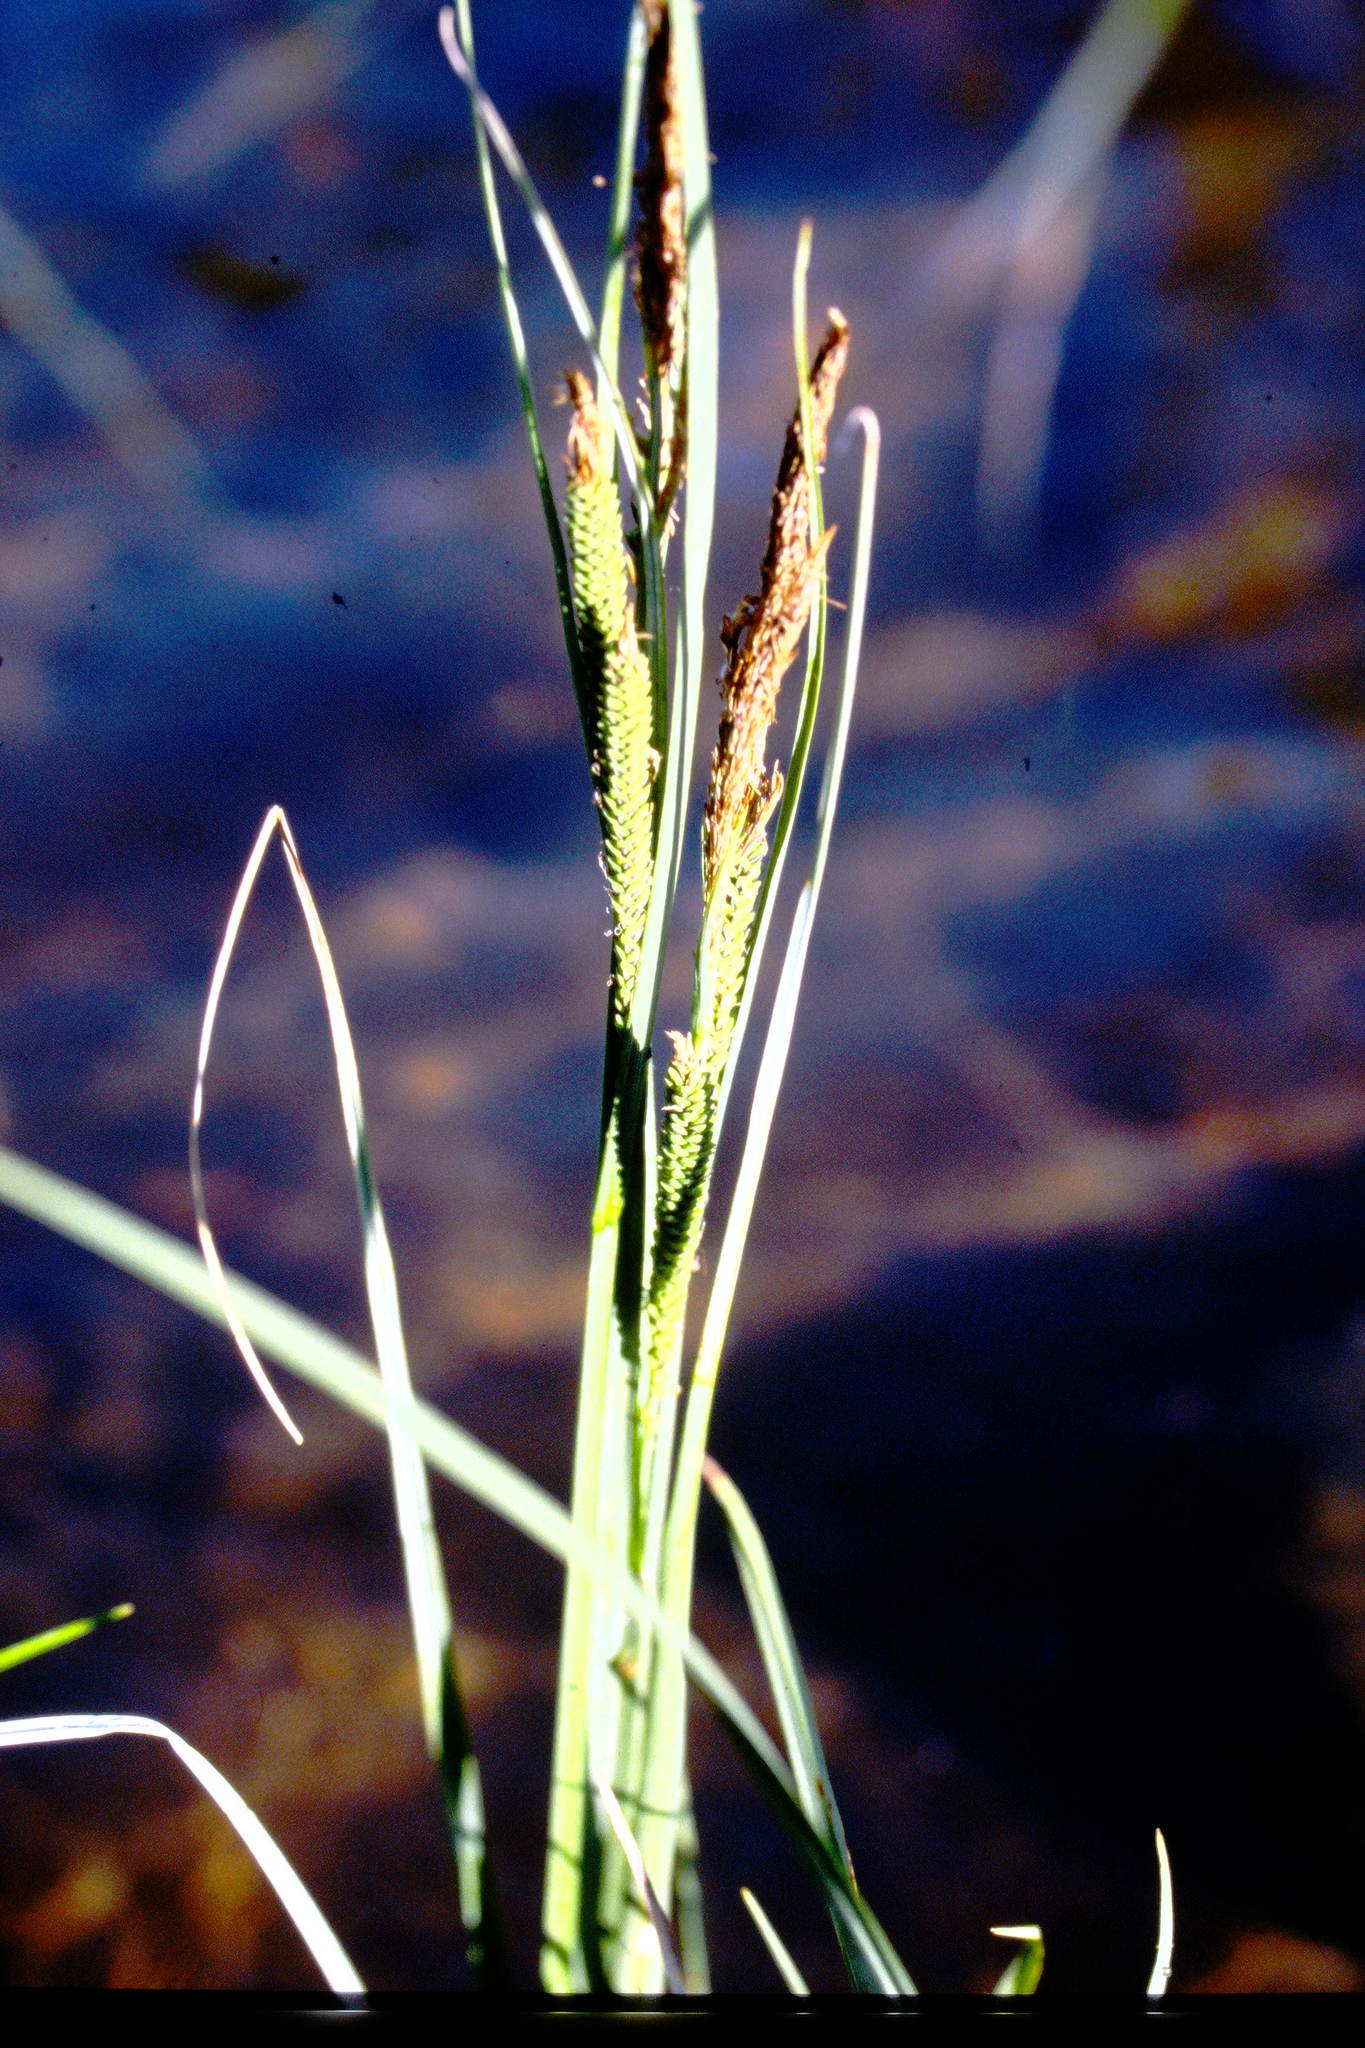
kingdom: Plantae
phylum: Tracheophyta
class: Liliopsida
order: Poales
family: Cyperaceae
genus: Carex
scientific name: Carex aquatilis
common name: Water sedge
